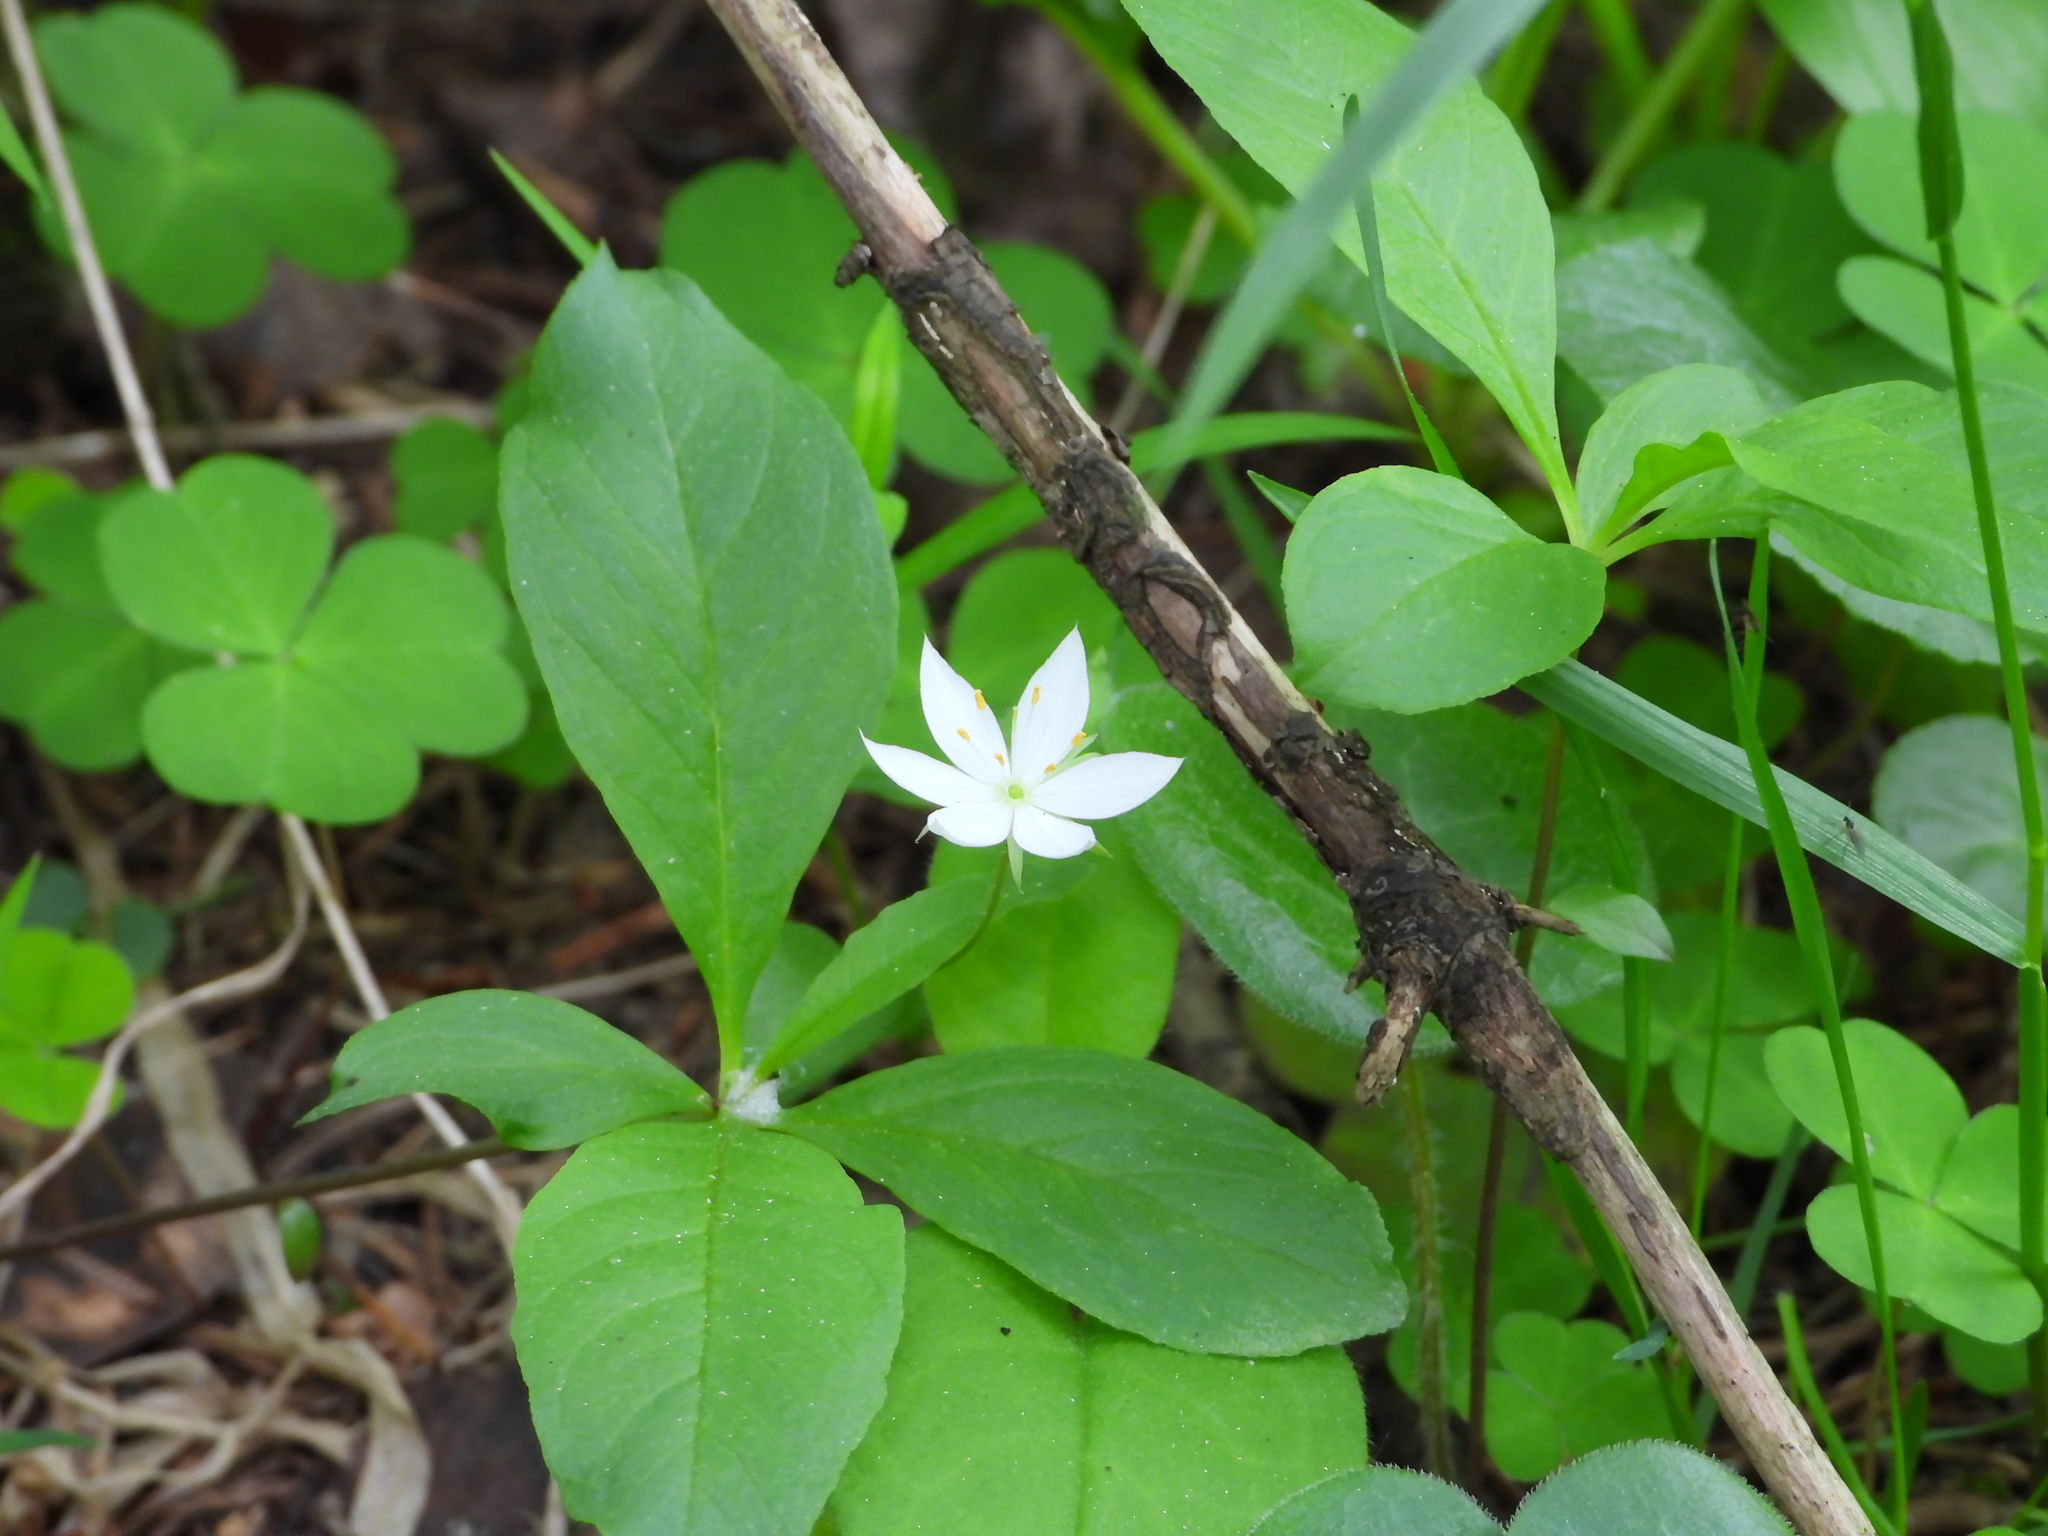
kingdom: Plantae
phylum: Tracheophyta
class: Magnoliopsida
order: Ericales
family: Primulaceae
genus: Lysimachia
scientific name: Lysimachia europaea
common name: Arctic starflower
